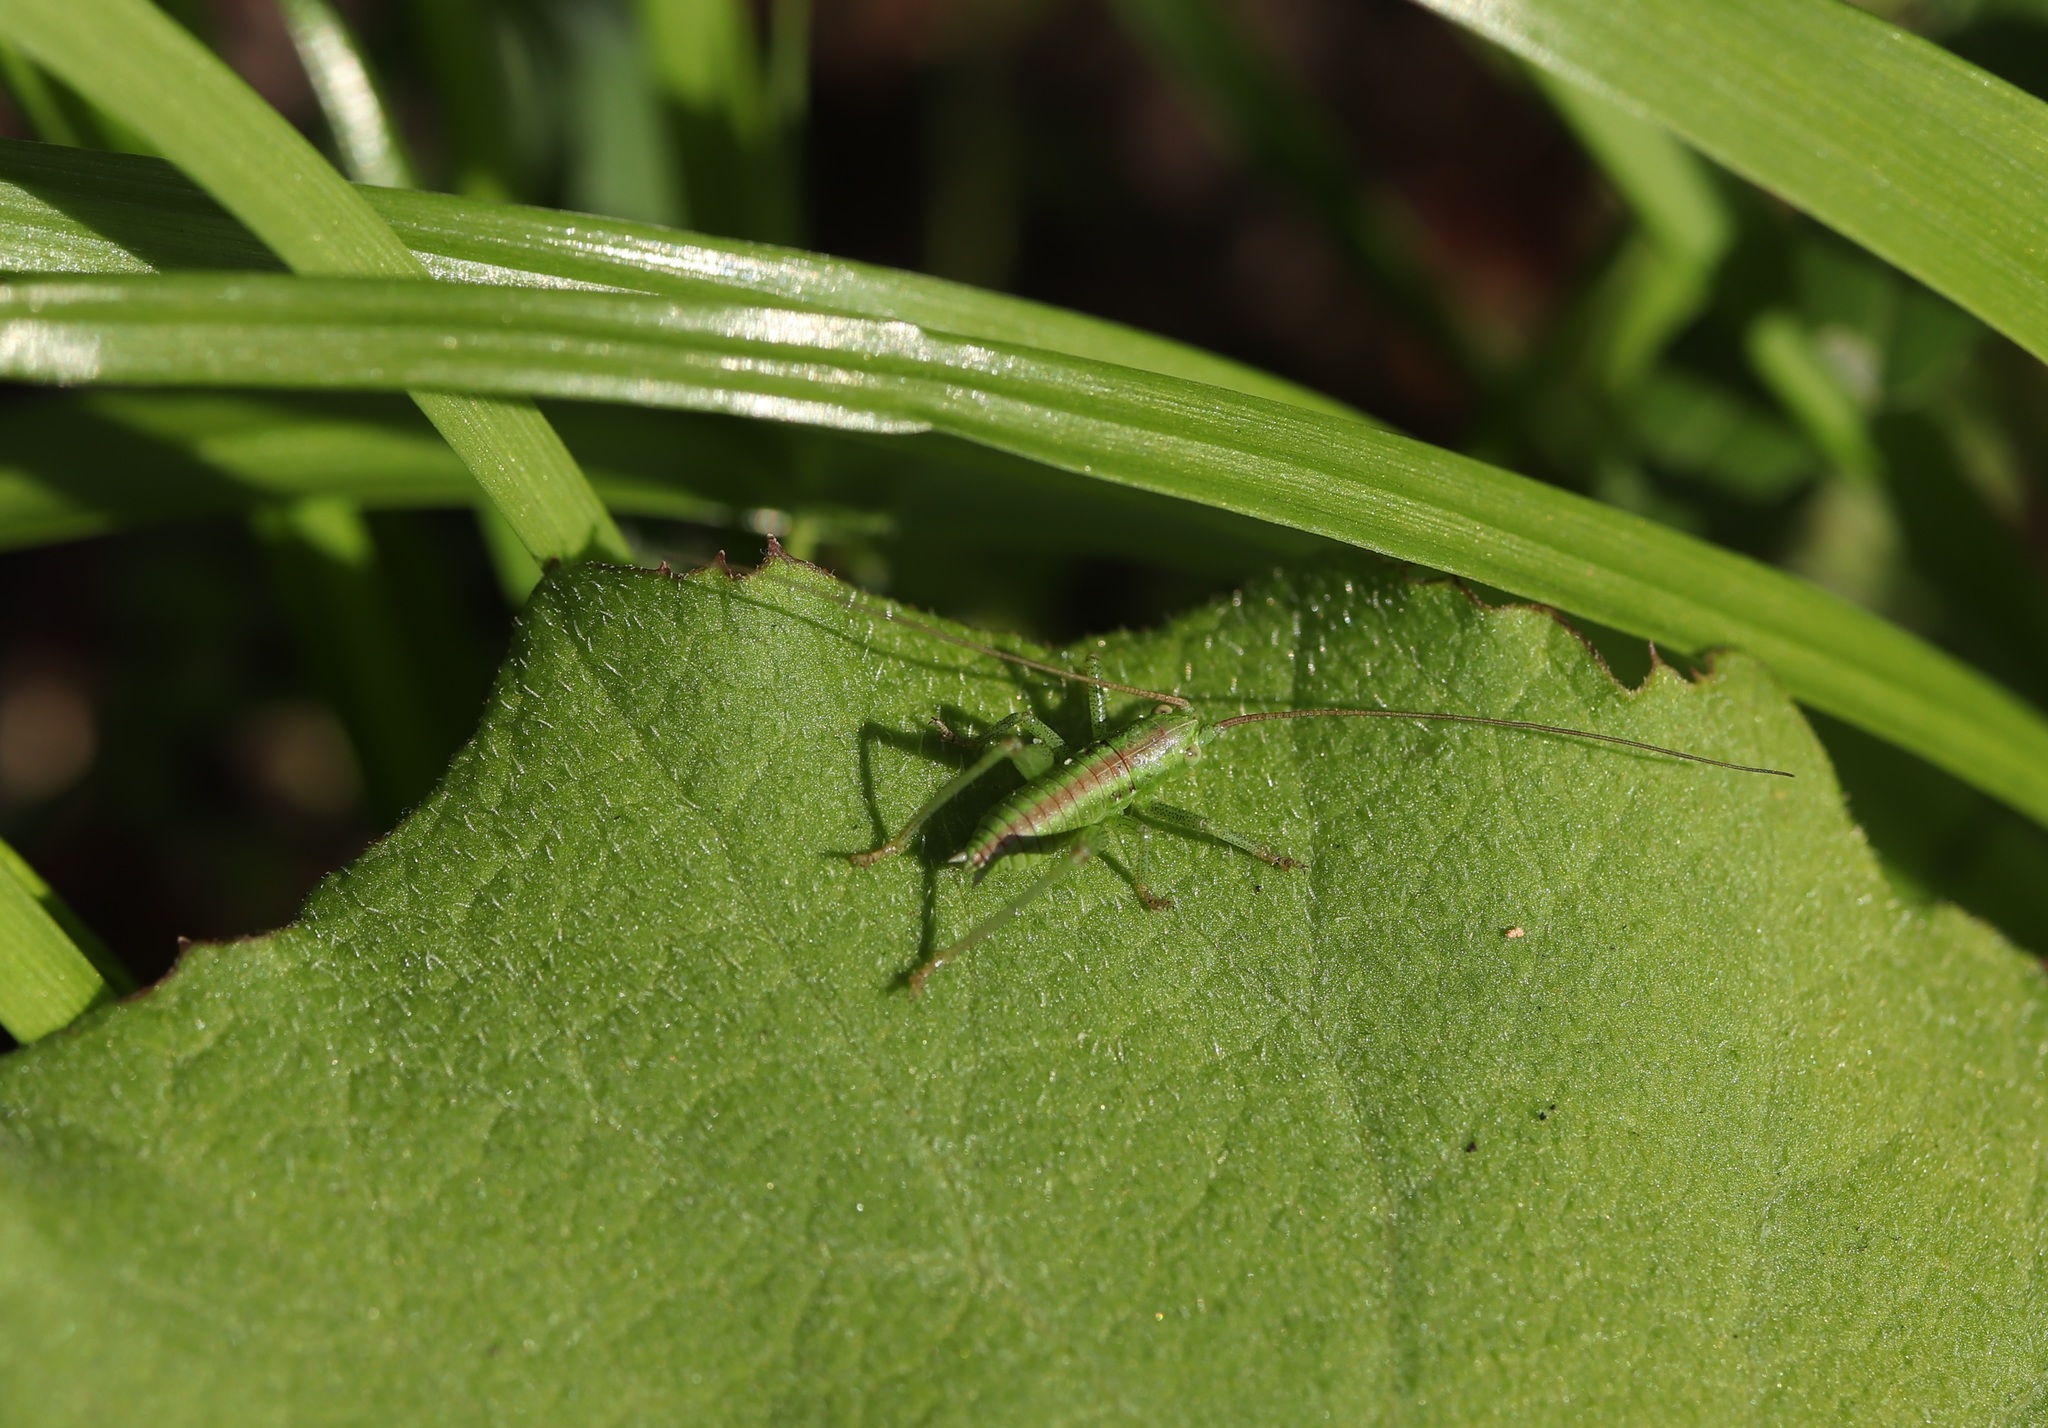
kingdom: Animalia
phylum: Arthropoda
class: Insecta
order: Orthoptera
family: Tettigoniidae
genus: Tettigonia
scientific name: Tettigonia orientalis
